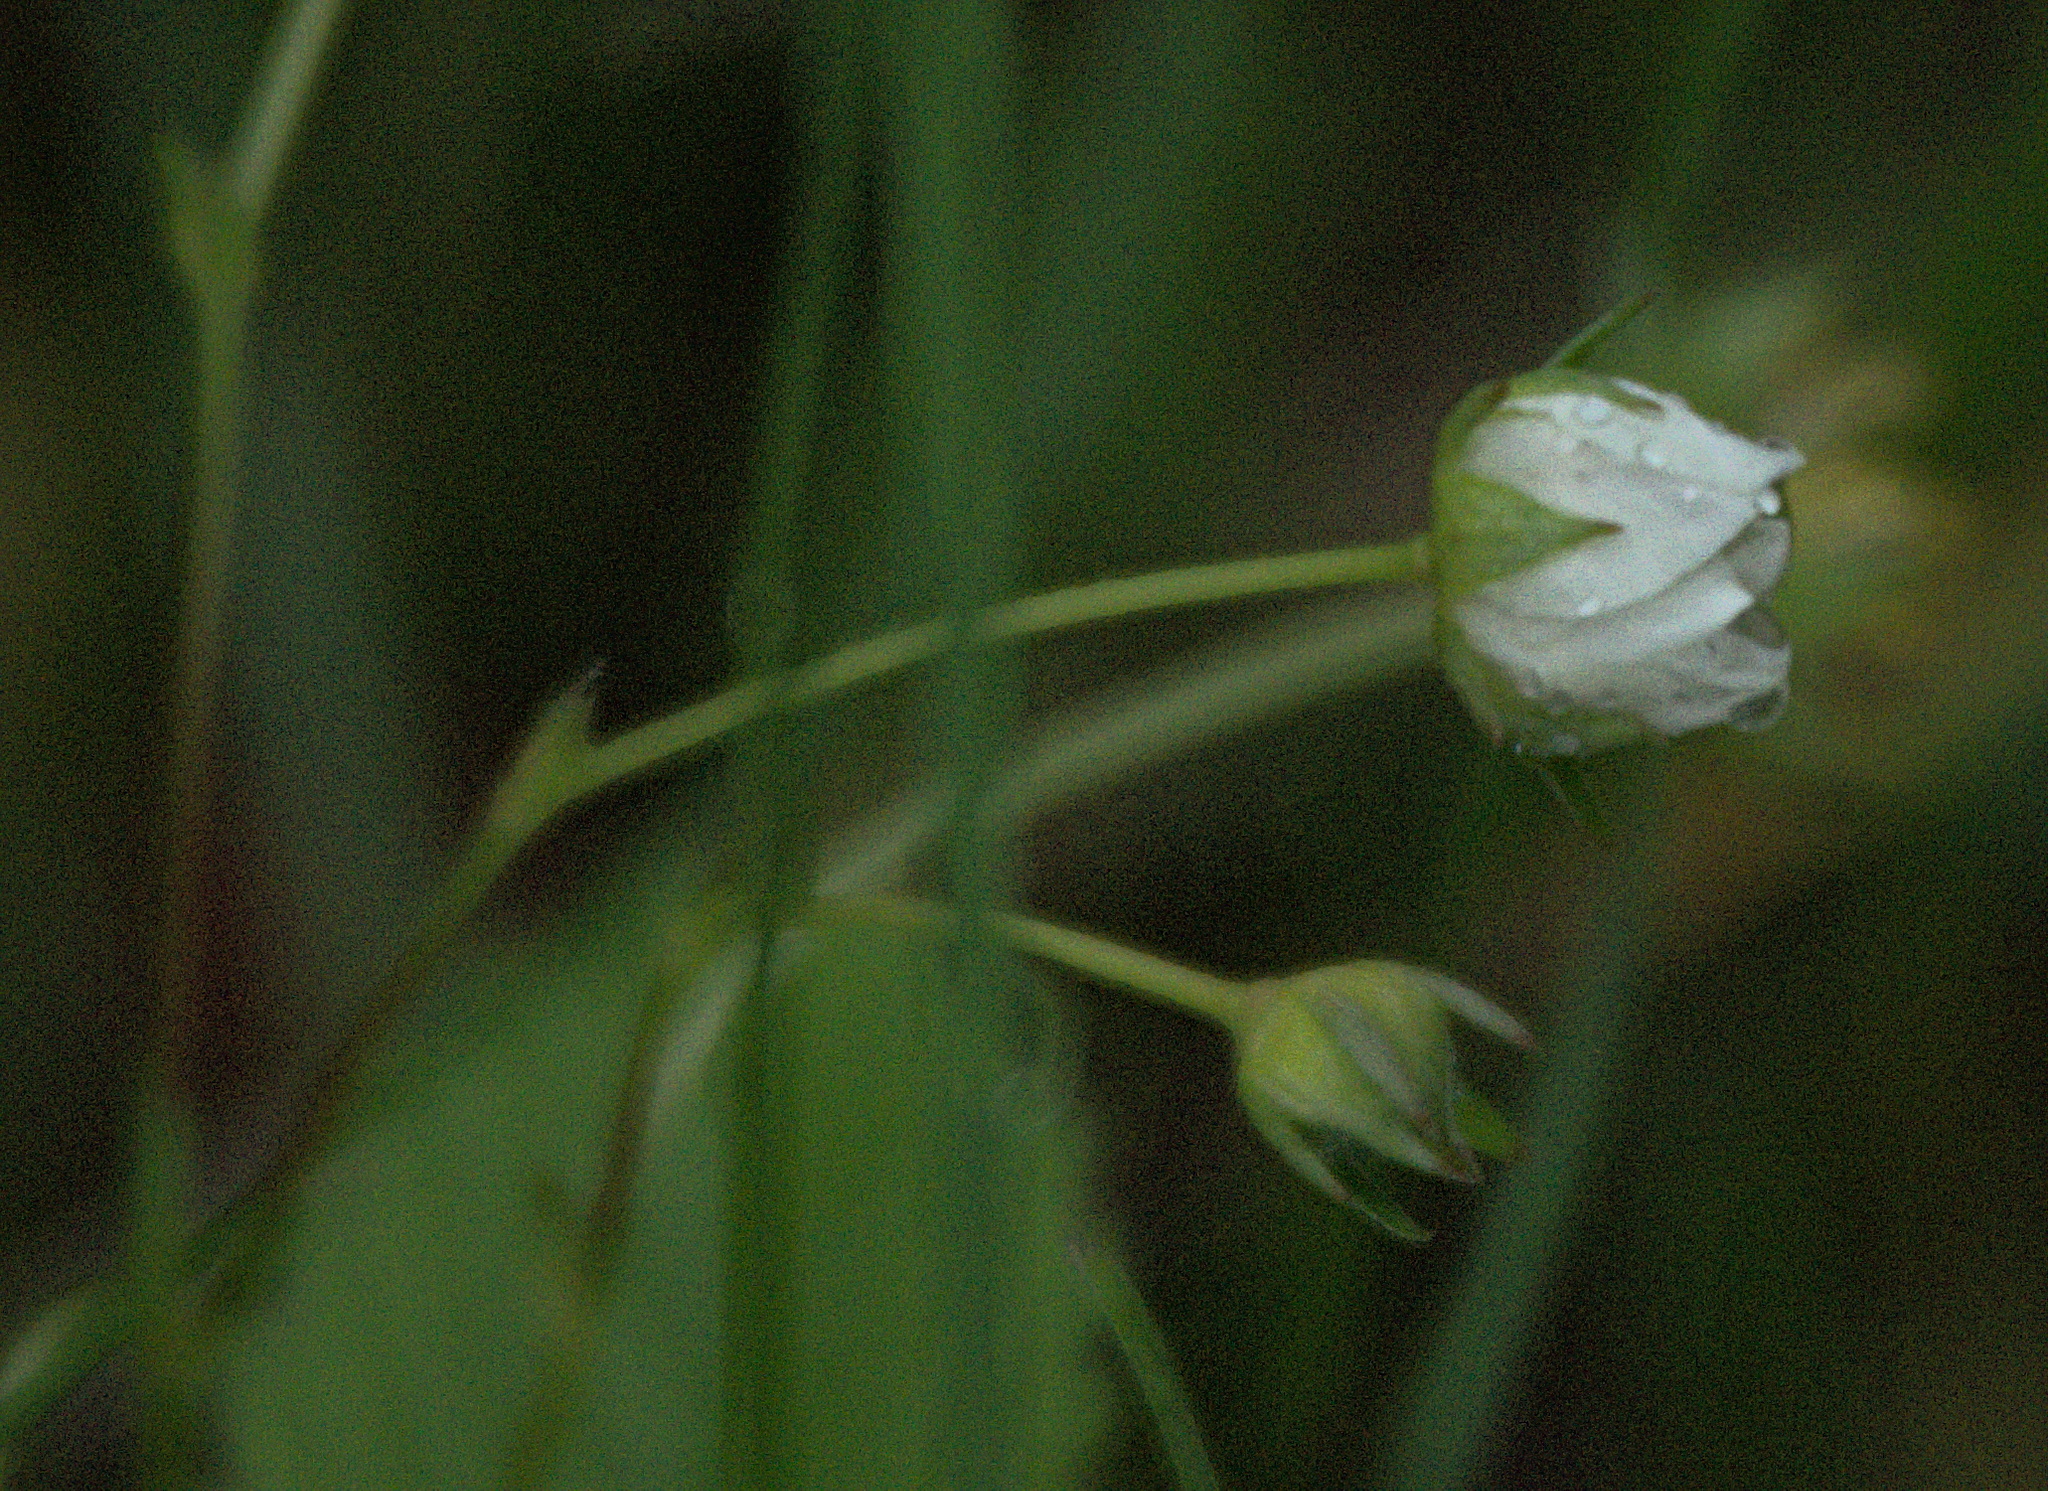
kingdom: Plantae
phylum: Tracheophyta
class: Magnoliopsida
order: Rosales
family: Rosaceae
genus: Fragaria
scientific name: Fragaria viridis
